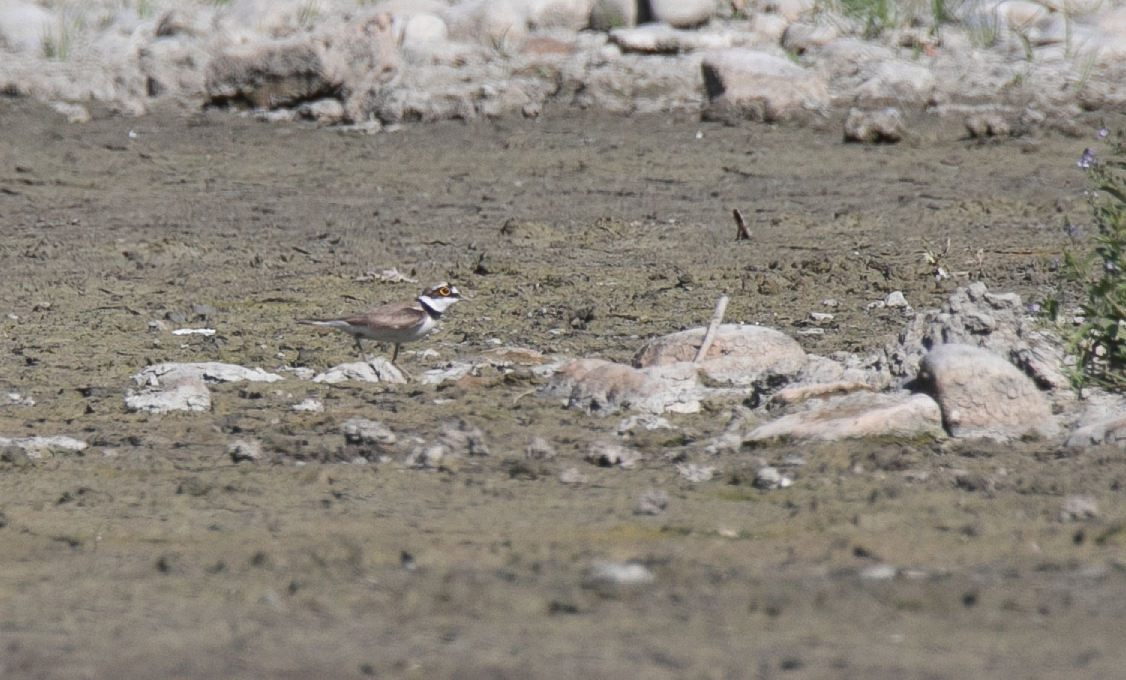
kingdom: Animalia
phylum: Chordata
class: Aves
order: Charadriiformes
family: Charadriidae
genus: Charadrius
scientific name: Charadrius dubius
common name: Little ringed plover
